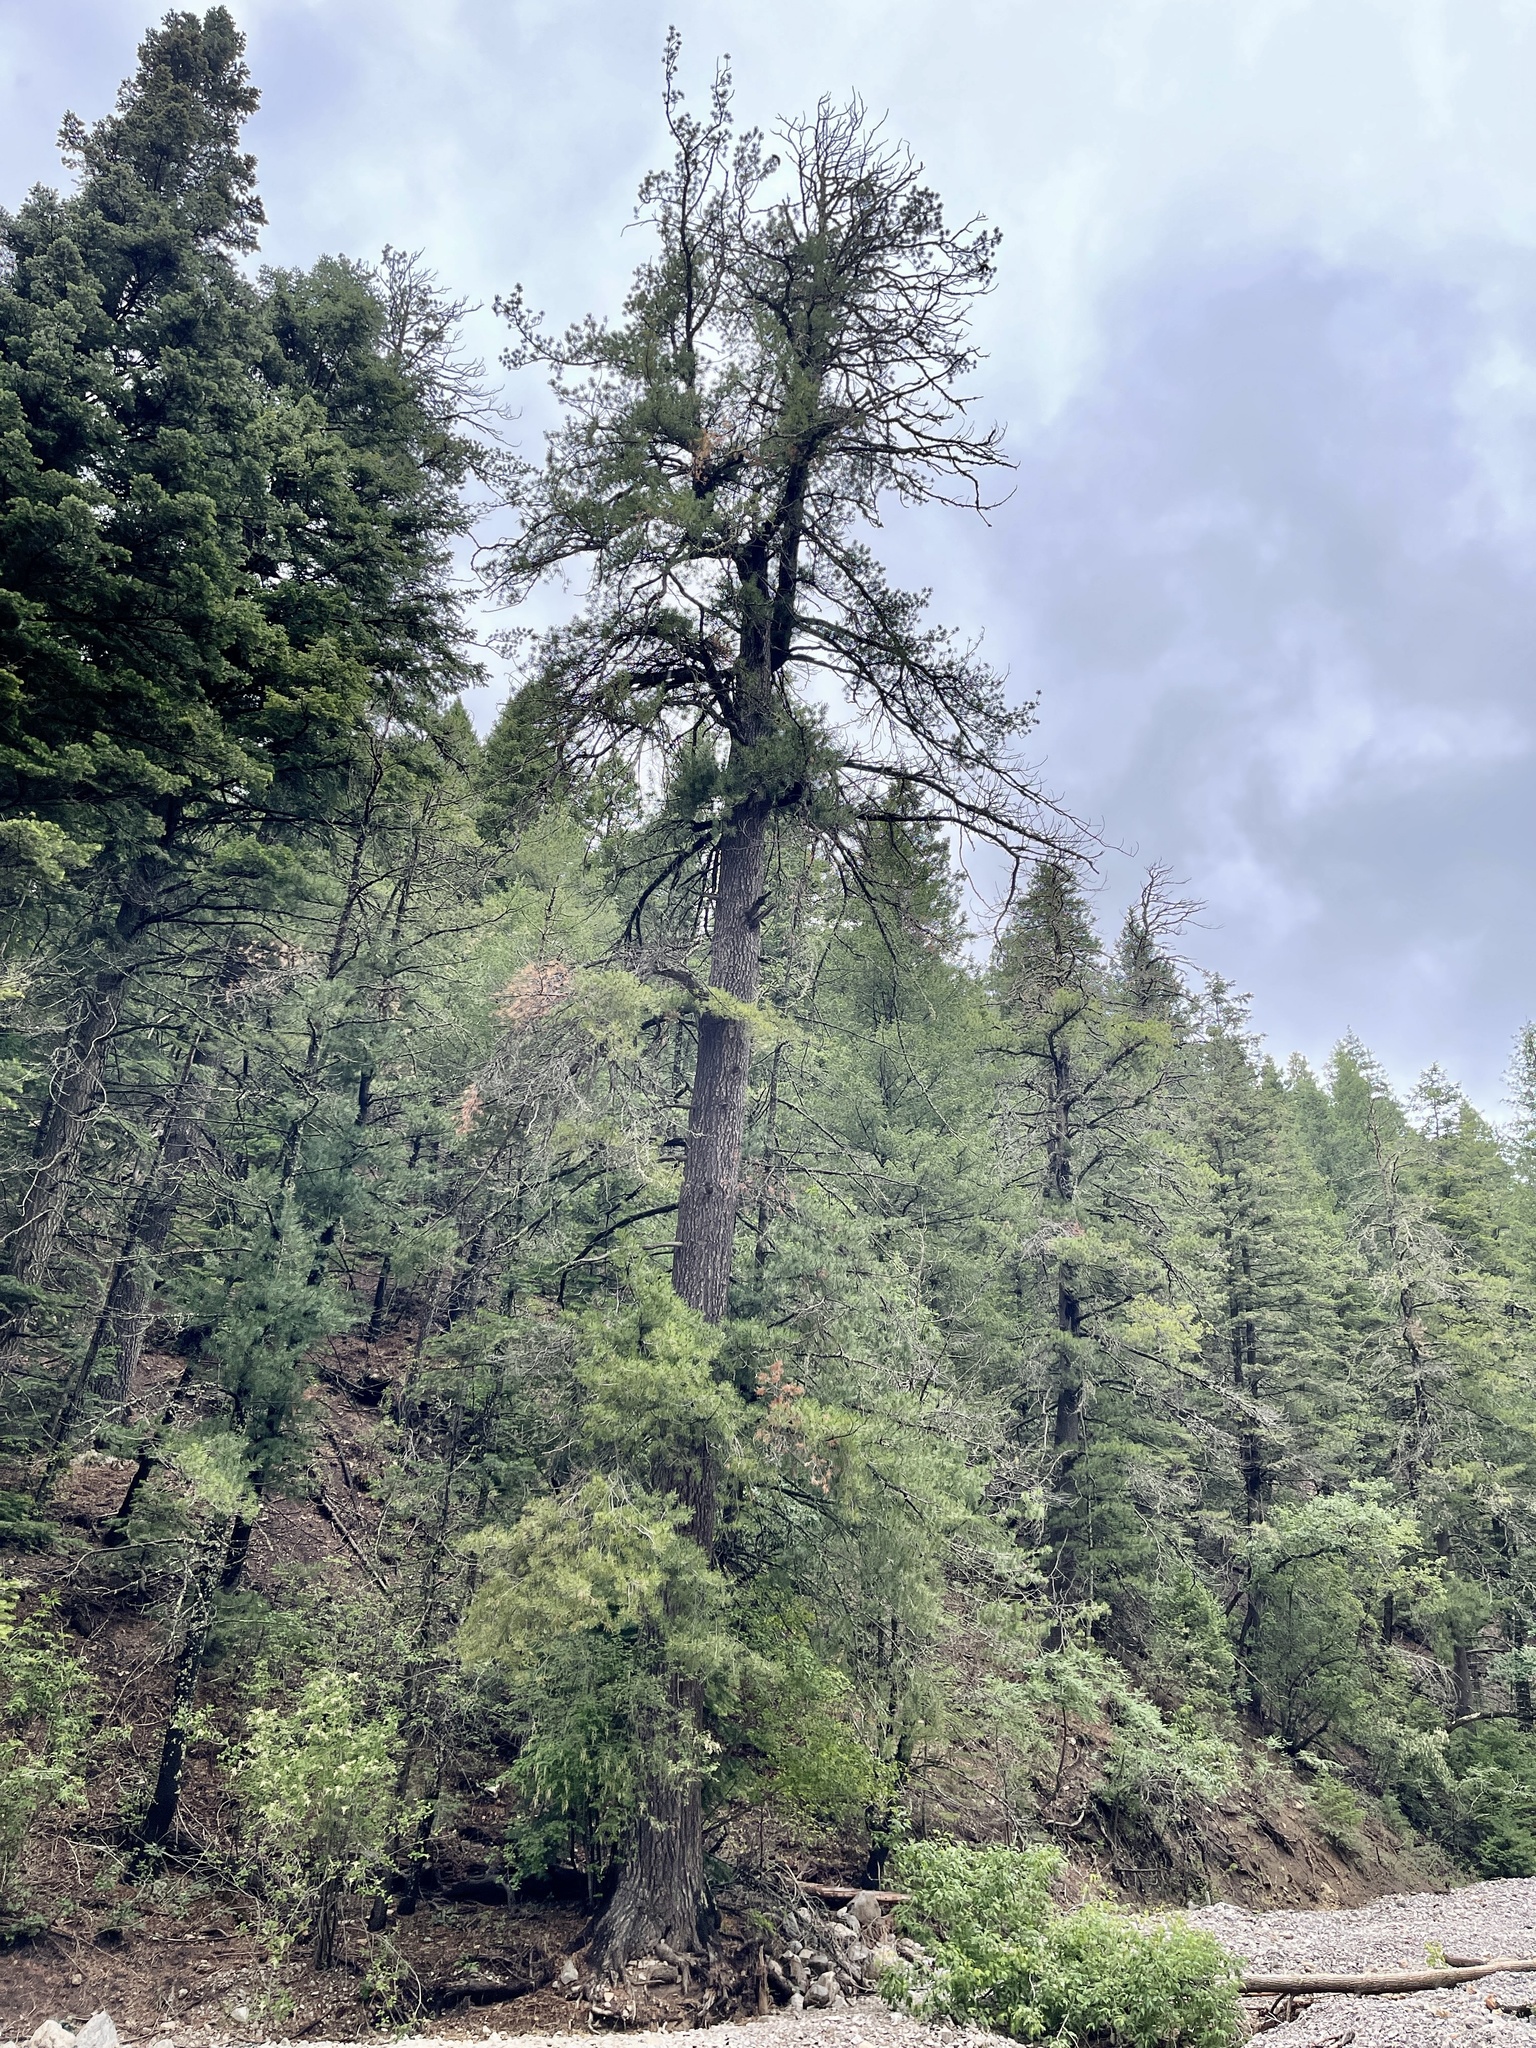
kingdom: Plantae
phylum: Tracheophyta
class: Pinopsida
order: Pinales
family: Pinaceae
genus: Pinus
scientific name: Pinus strobiformis
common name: Southwestern white pine
